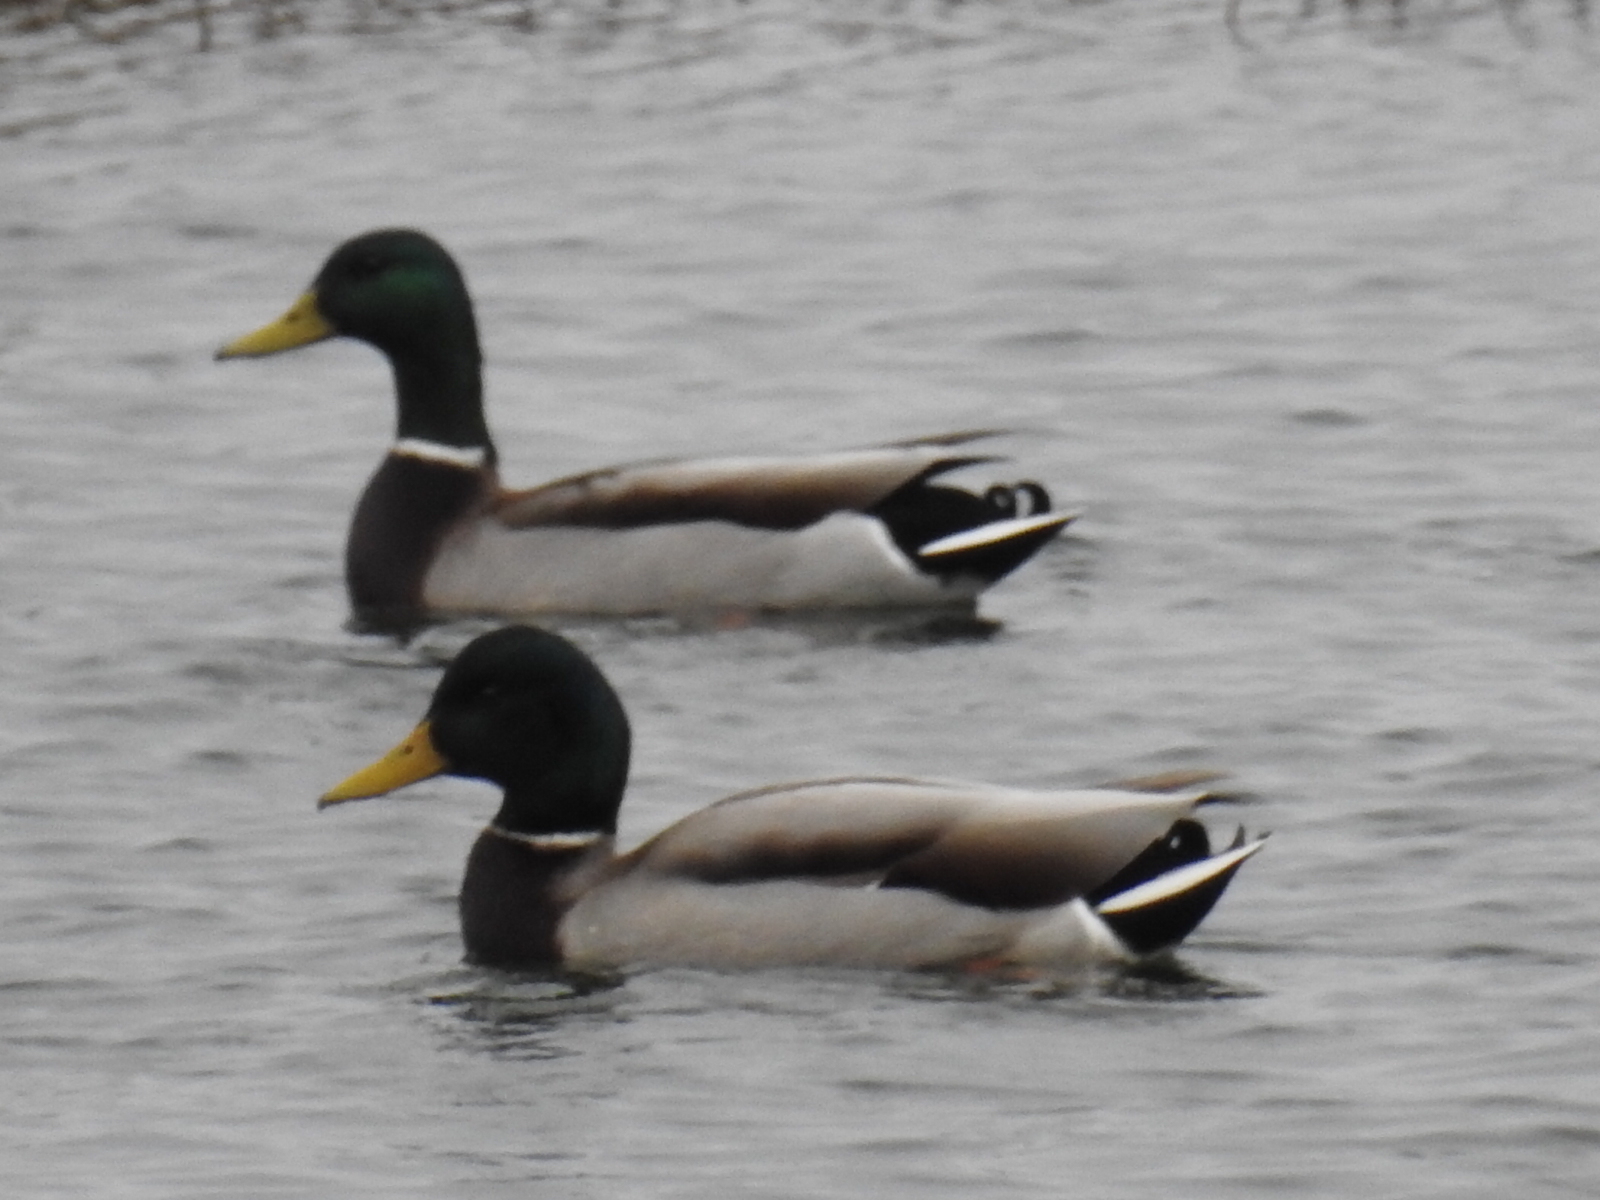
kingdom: Animalia
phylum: Chordata
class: Aves
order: Anseriformes
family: Anatidae
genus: Anas
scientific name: Anas platyrhynchos
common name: Mallard
